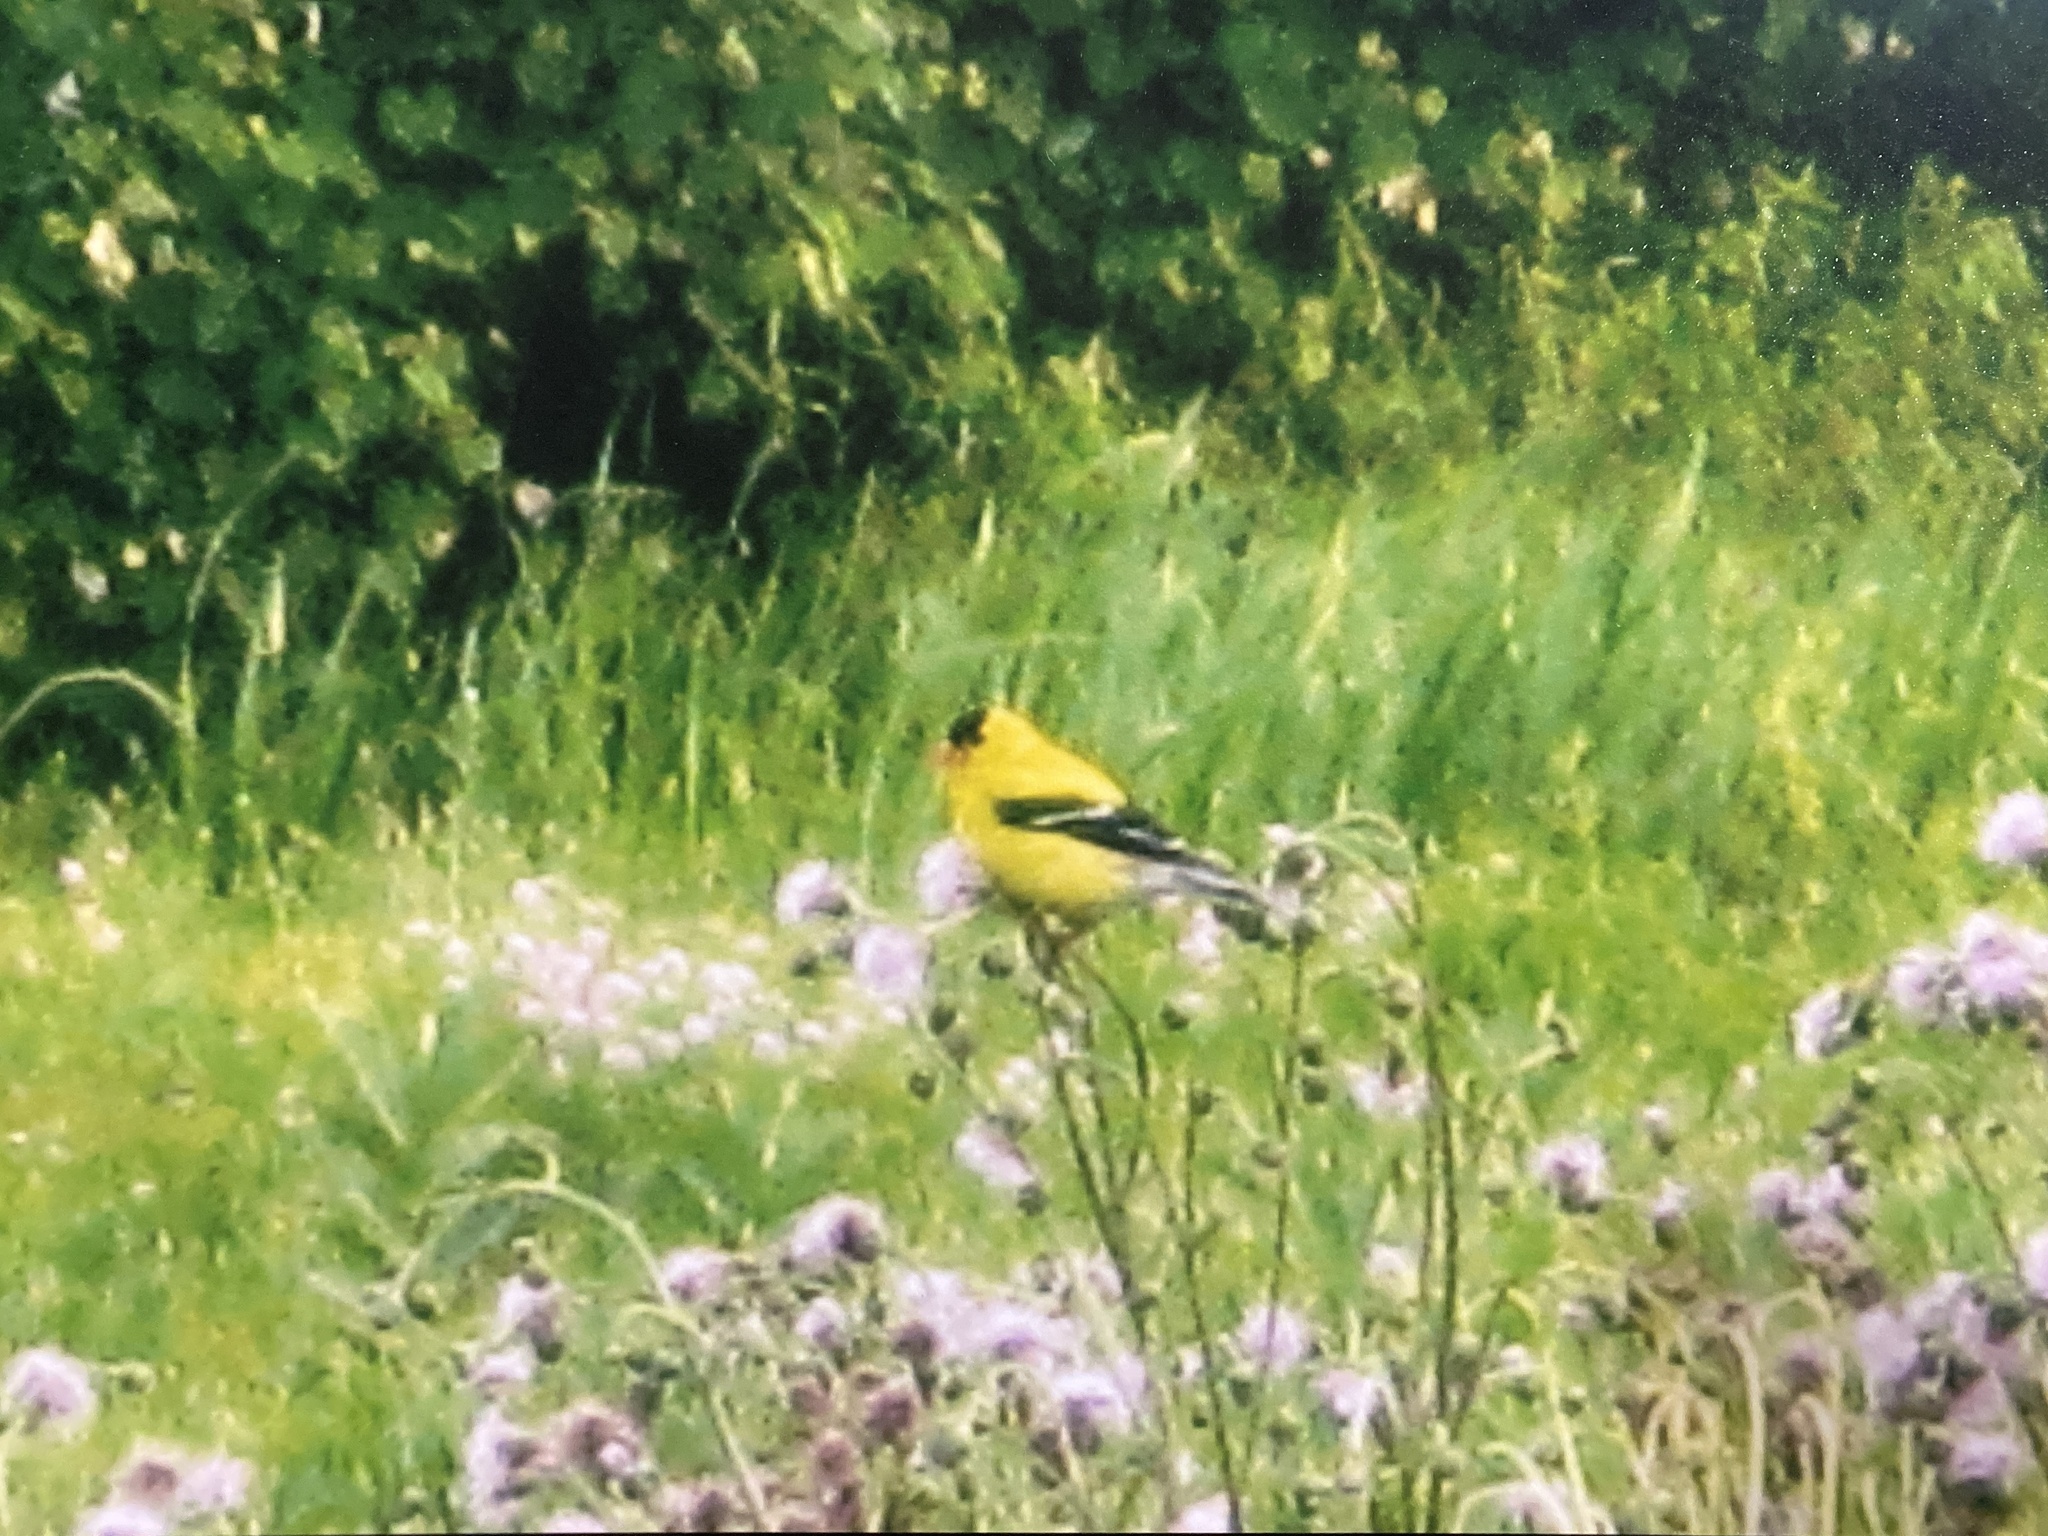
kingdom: Animalia
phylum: Chordata
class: Aves
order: Passeriformes
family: Fringillidae
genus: Spinus
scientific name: Spinus tristis
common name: American goldfinch
